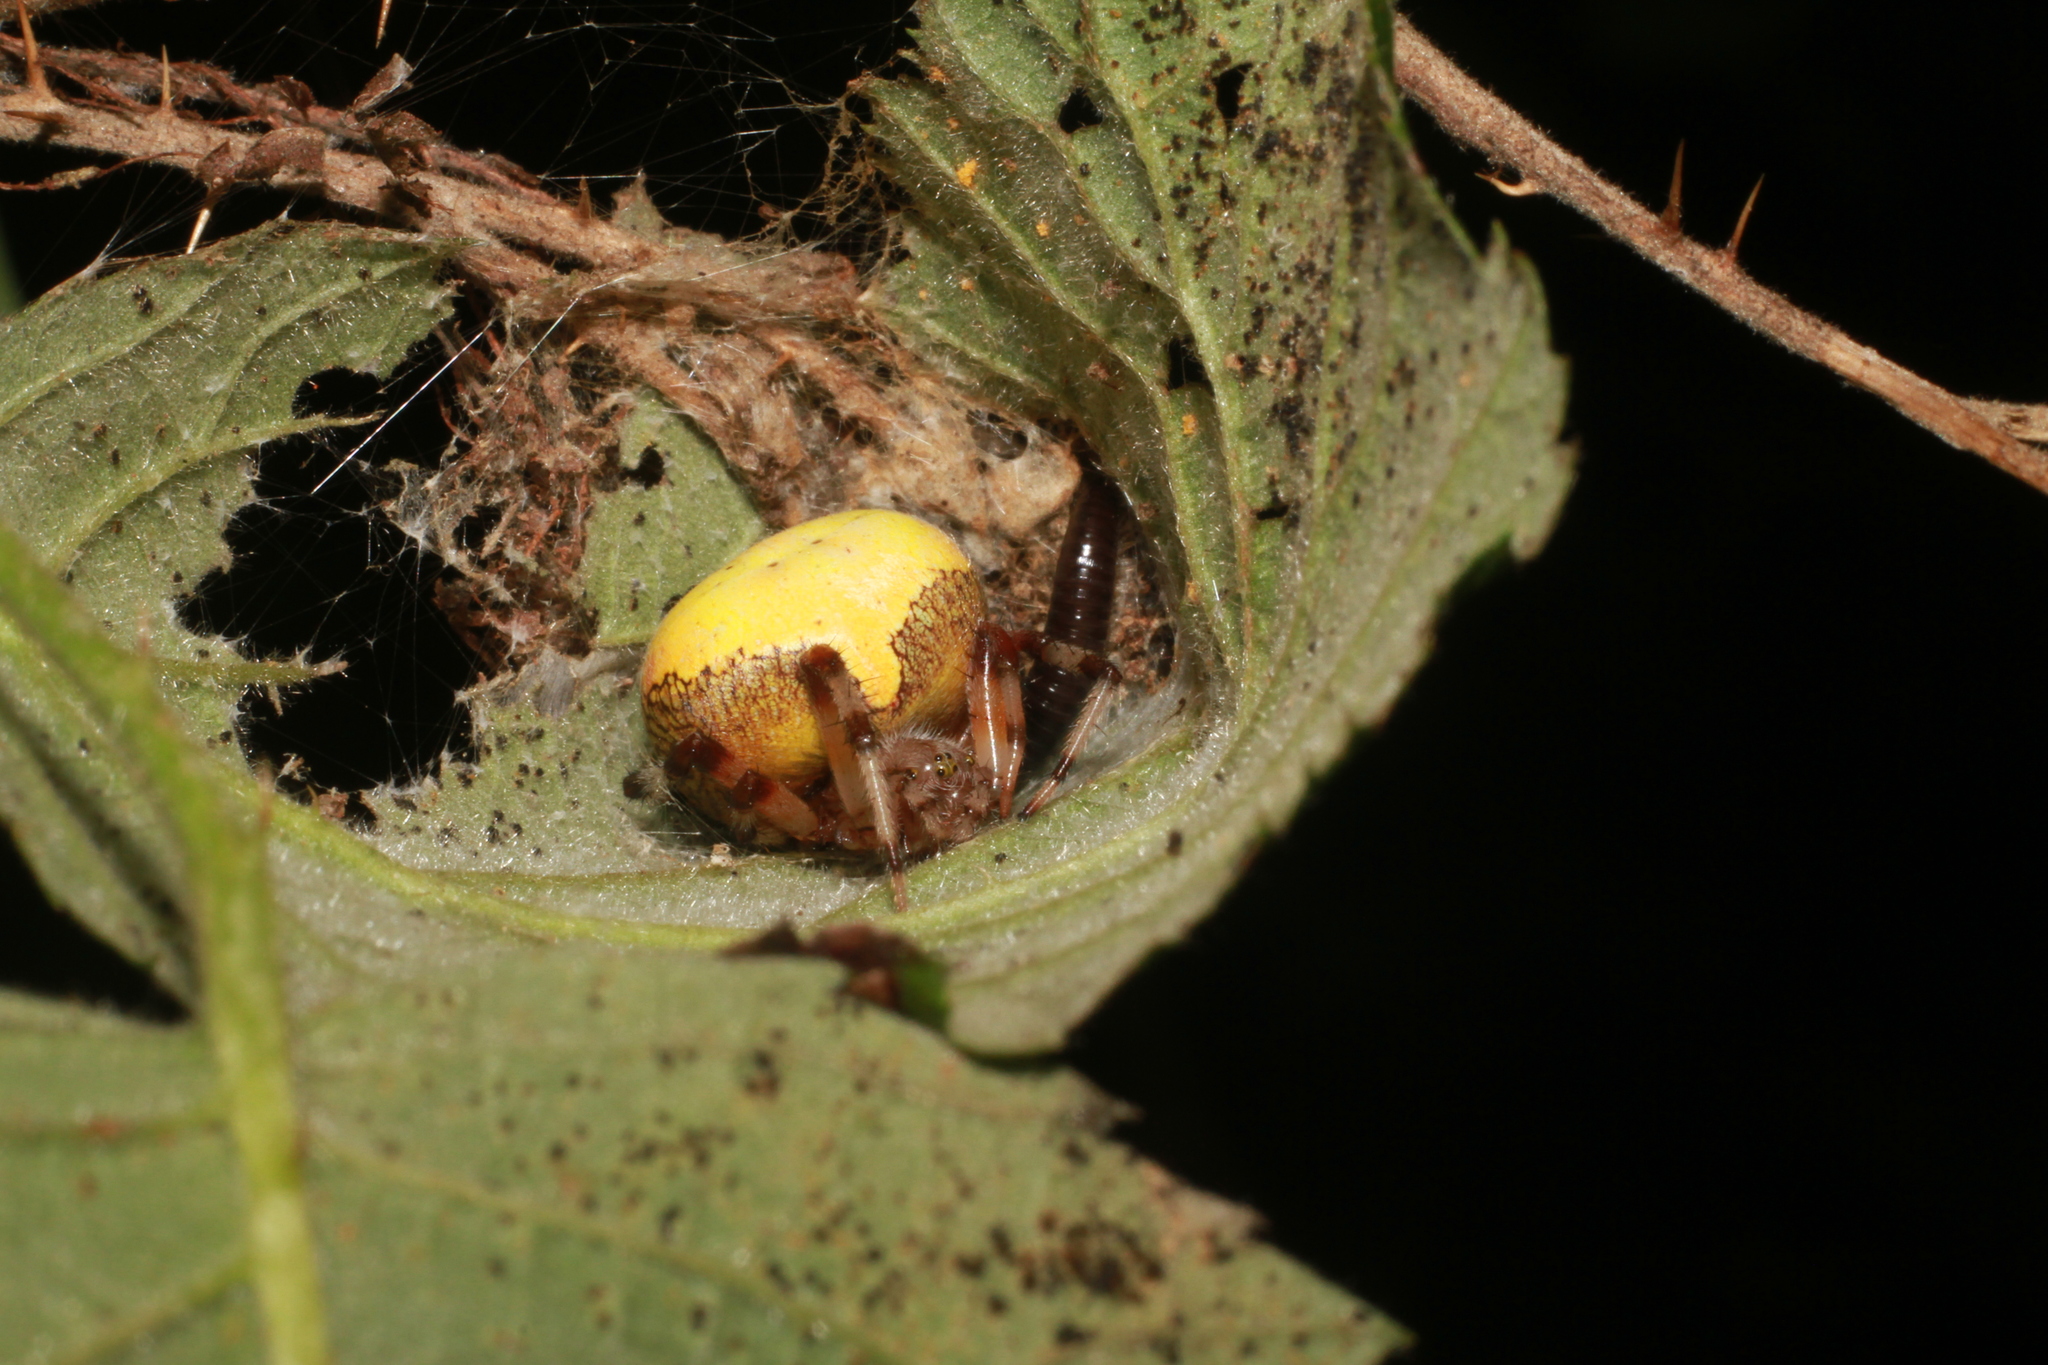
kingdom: Animalia
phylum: Arthropoda
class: Arachnida
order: Araneae
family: Araneidae
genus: Araneus
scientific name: Araneus marmoreus
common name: Marbled orbweaver
